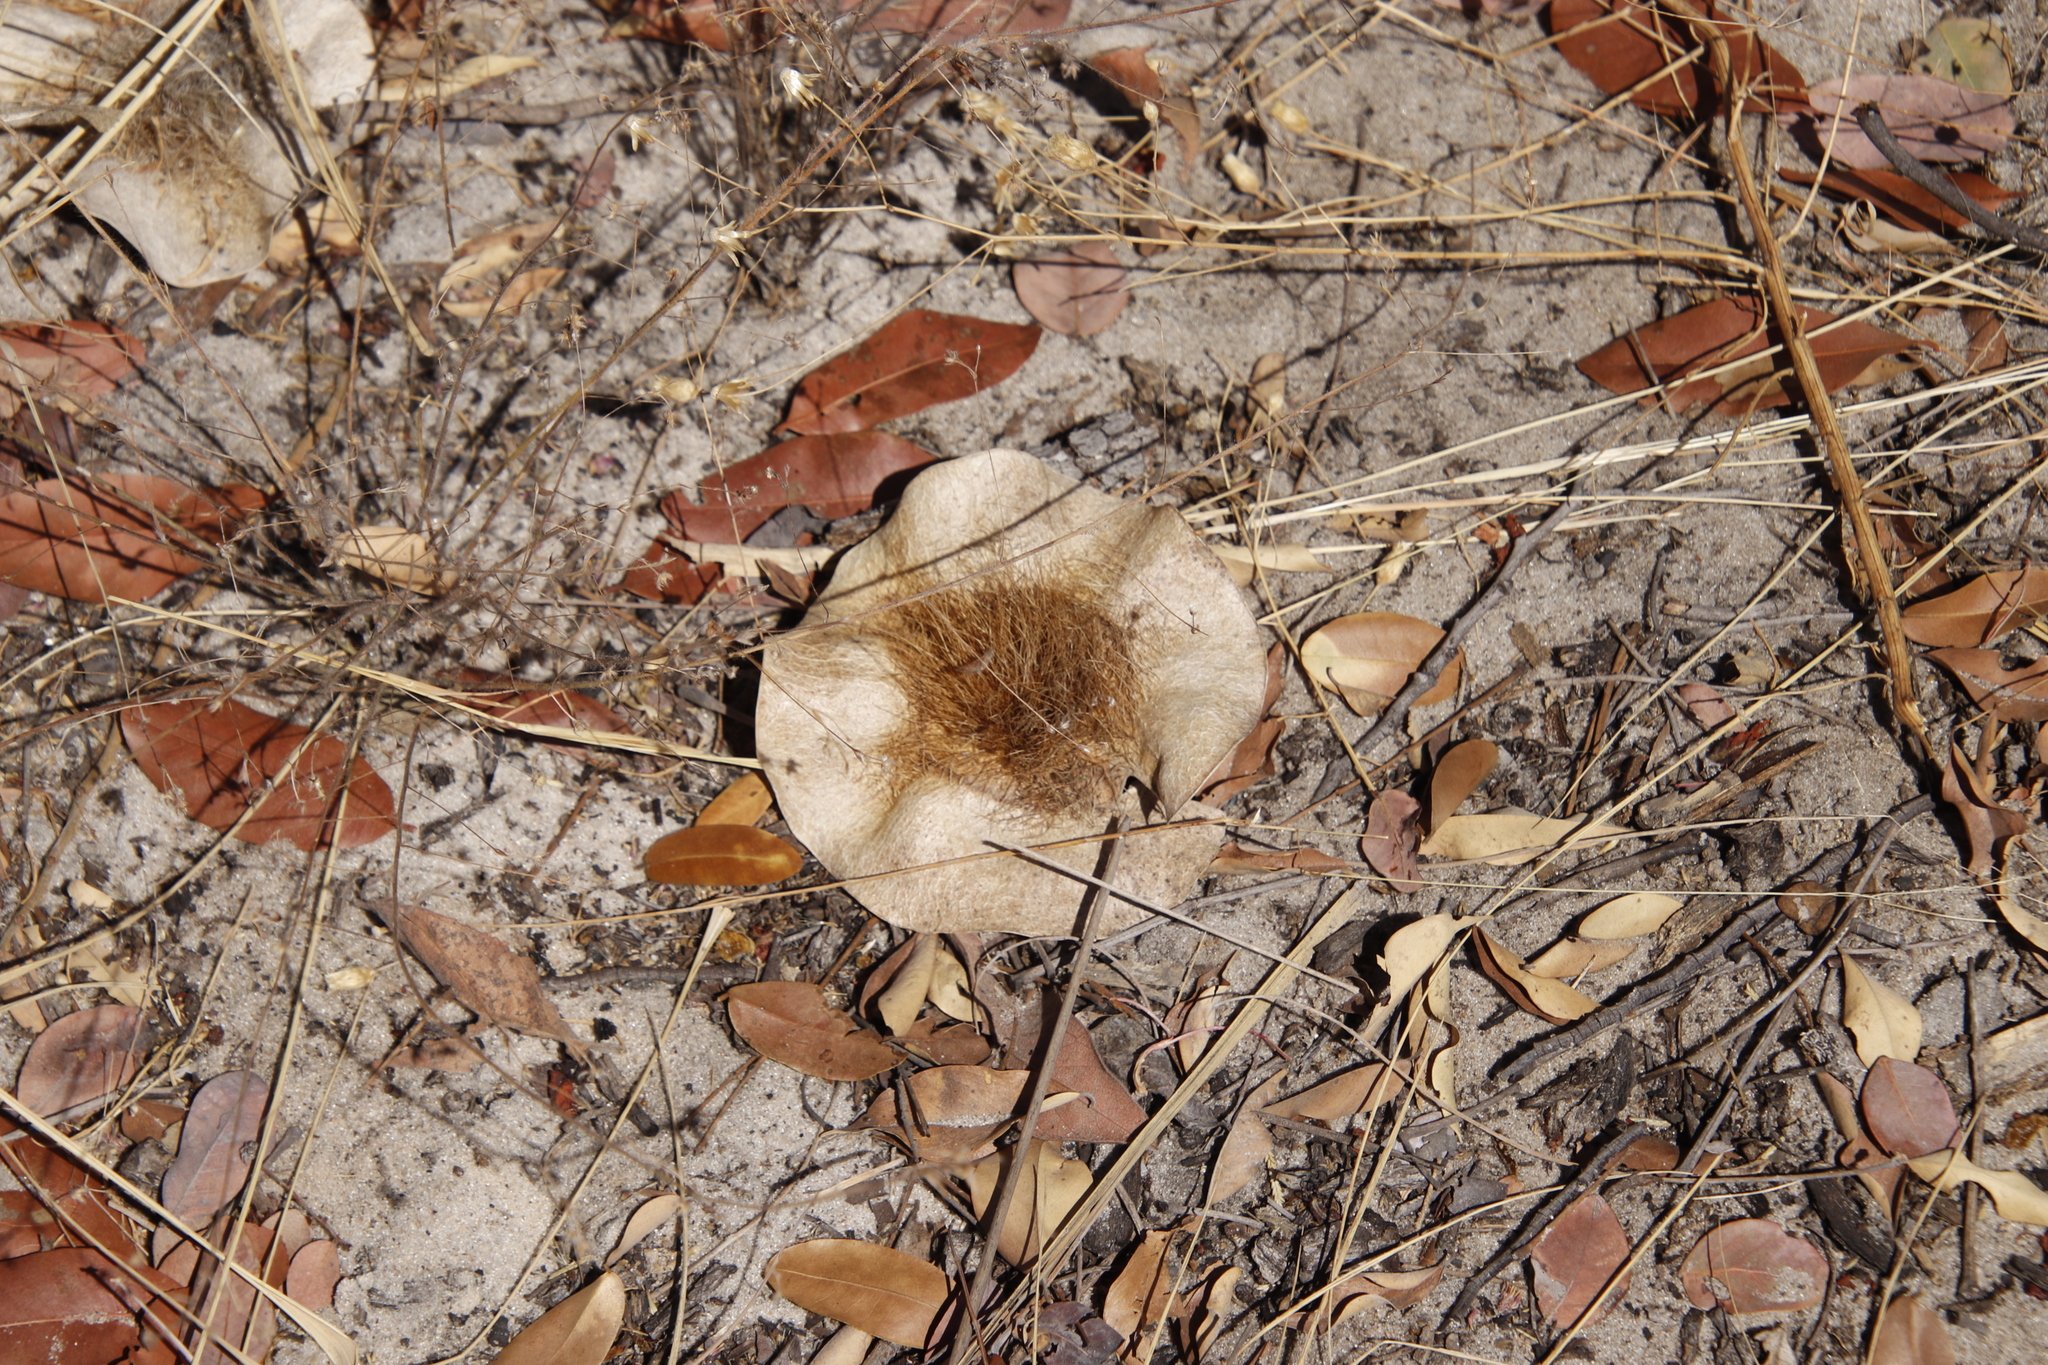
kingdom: Plantae
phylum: Tracheophyta
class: Magnoliopsida
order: Fabales
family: Fabaceae
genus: Pterocarpus
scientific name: Pterocarpus angolensis
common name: Bloodwood tree
